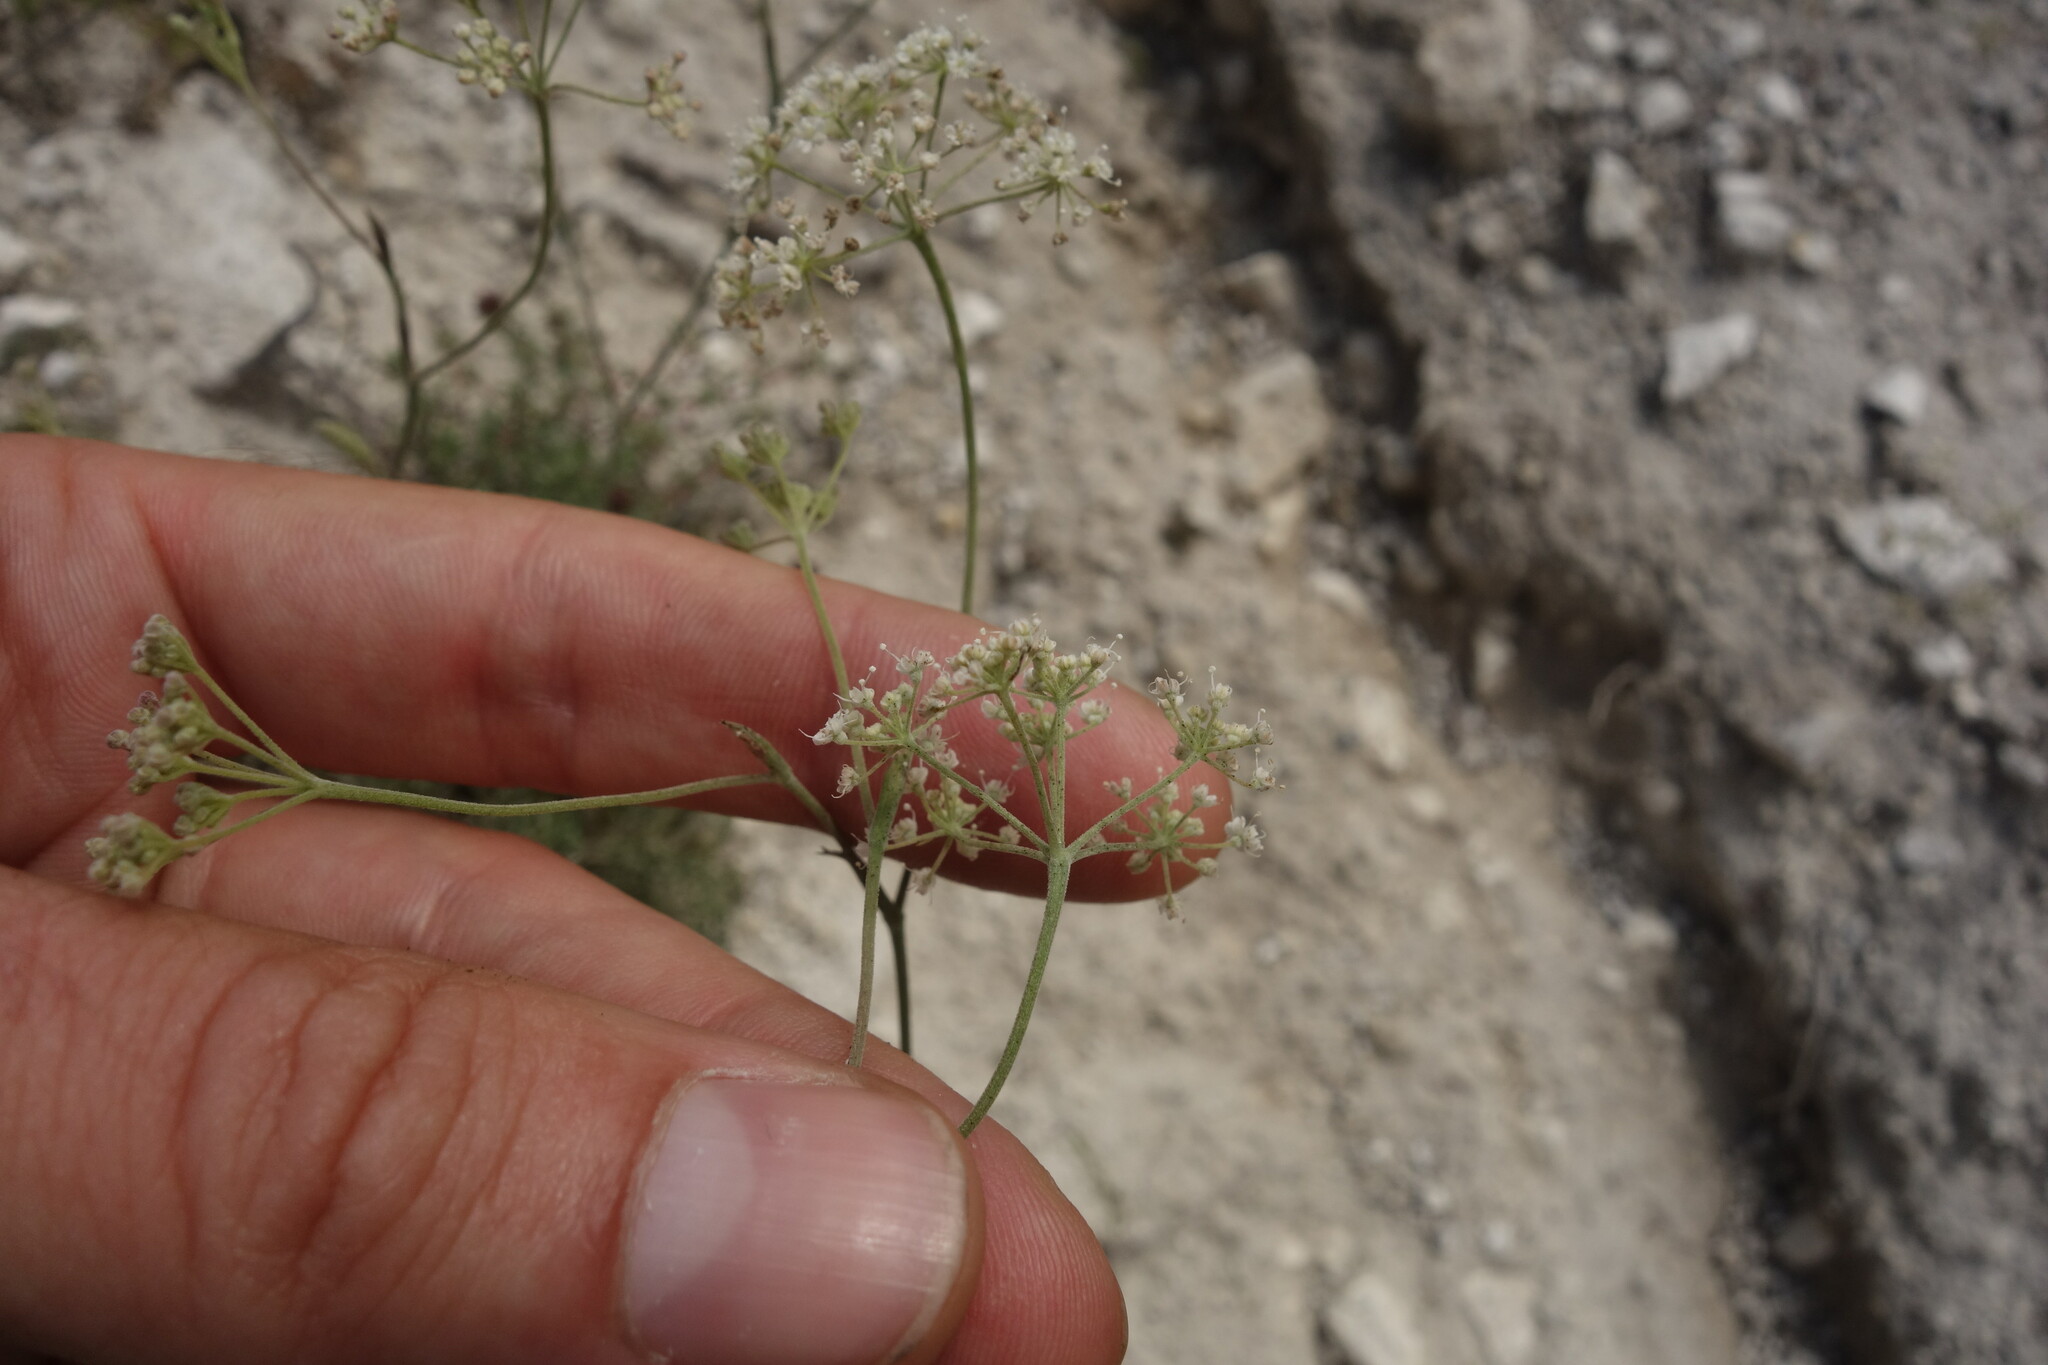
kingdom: Plantae
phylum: Tracheophyta
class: Magnoliopsida
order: Apiales
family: Apiaceae
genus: Pimpinella
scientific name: Pimpinella tragium
